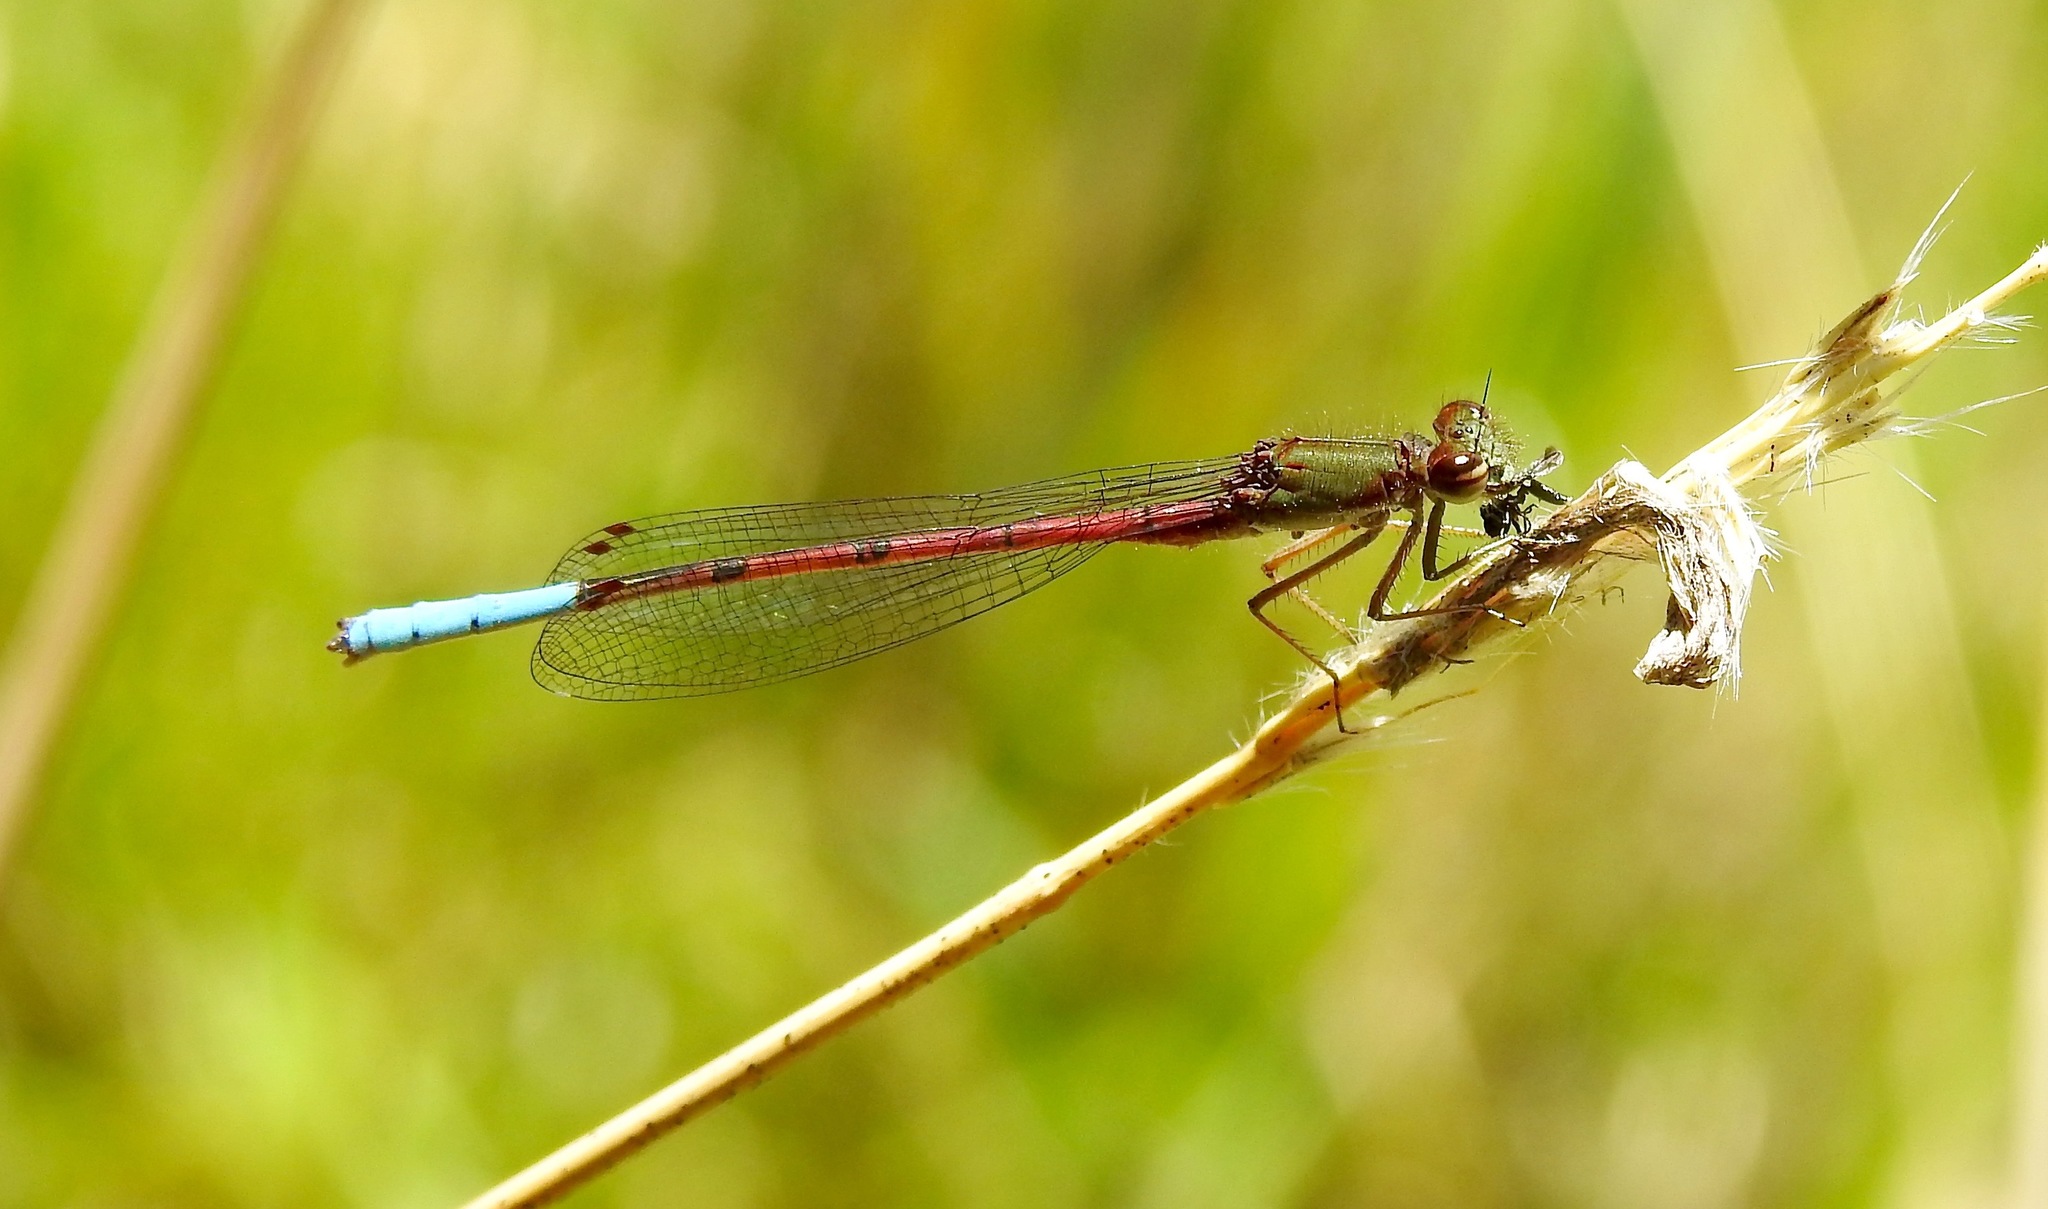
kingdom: Animalia
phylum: Arthropoda
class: Insecta
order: Odonata
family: Coenagrionidae
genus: Oxyallagma
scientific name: Oxyallagma dissidens
